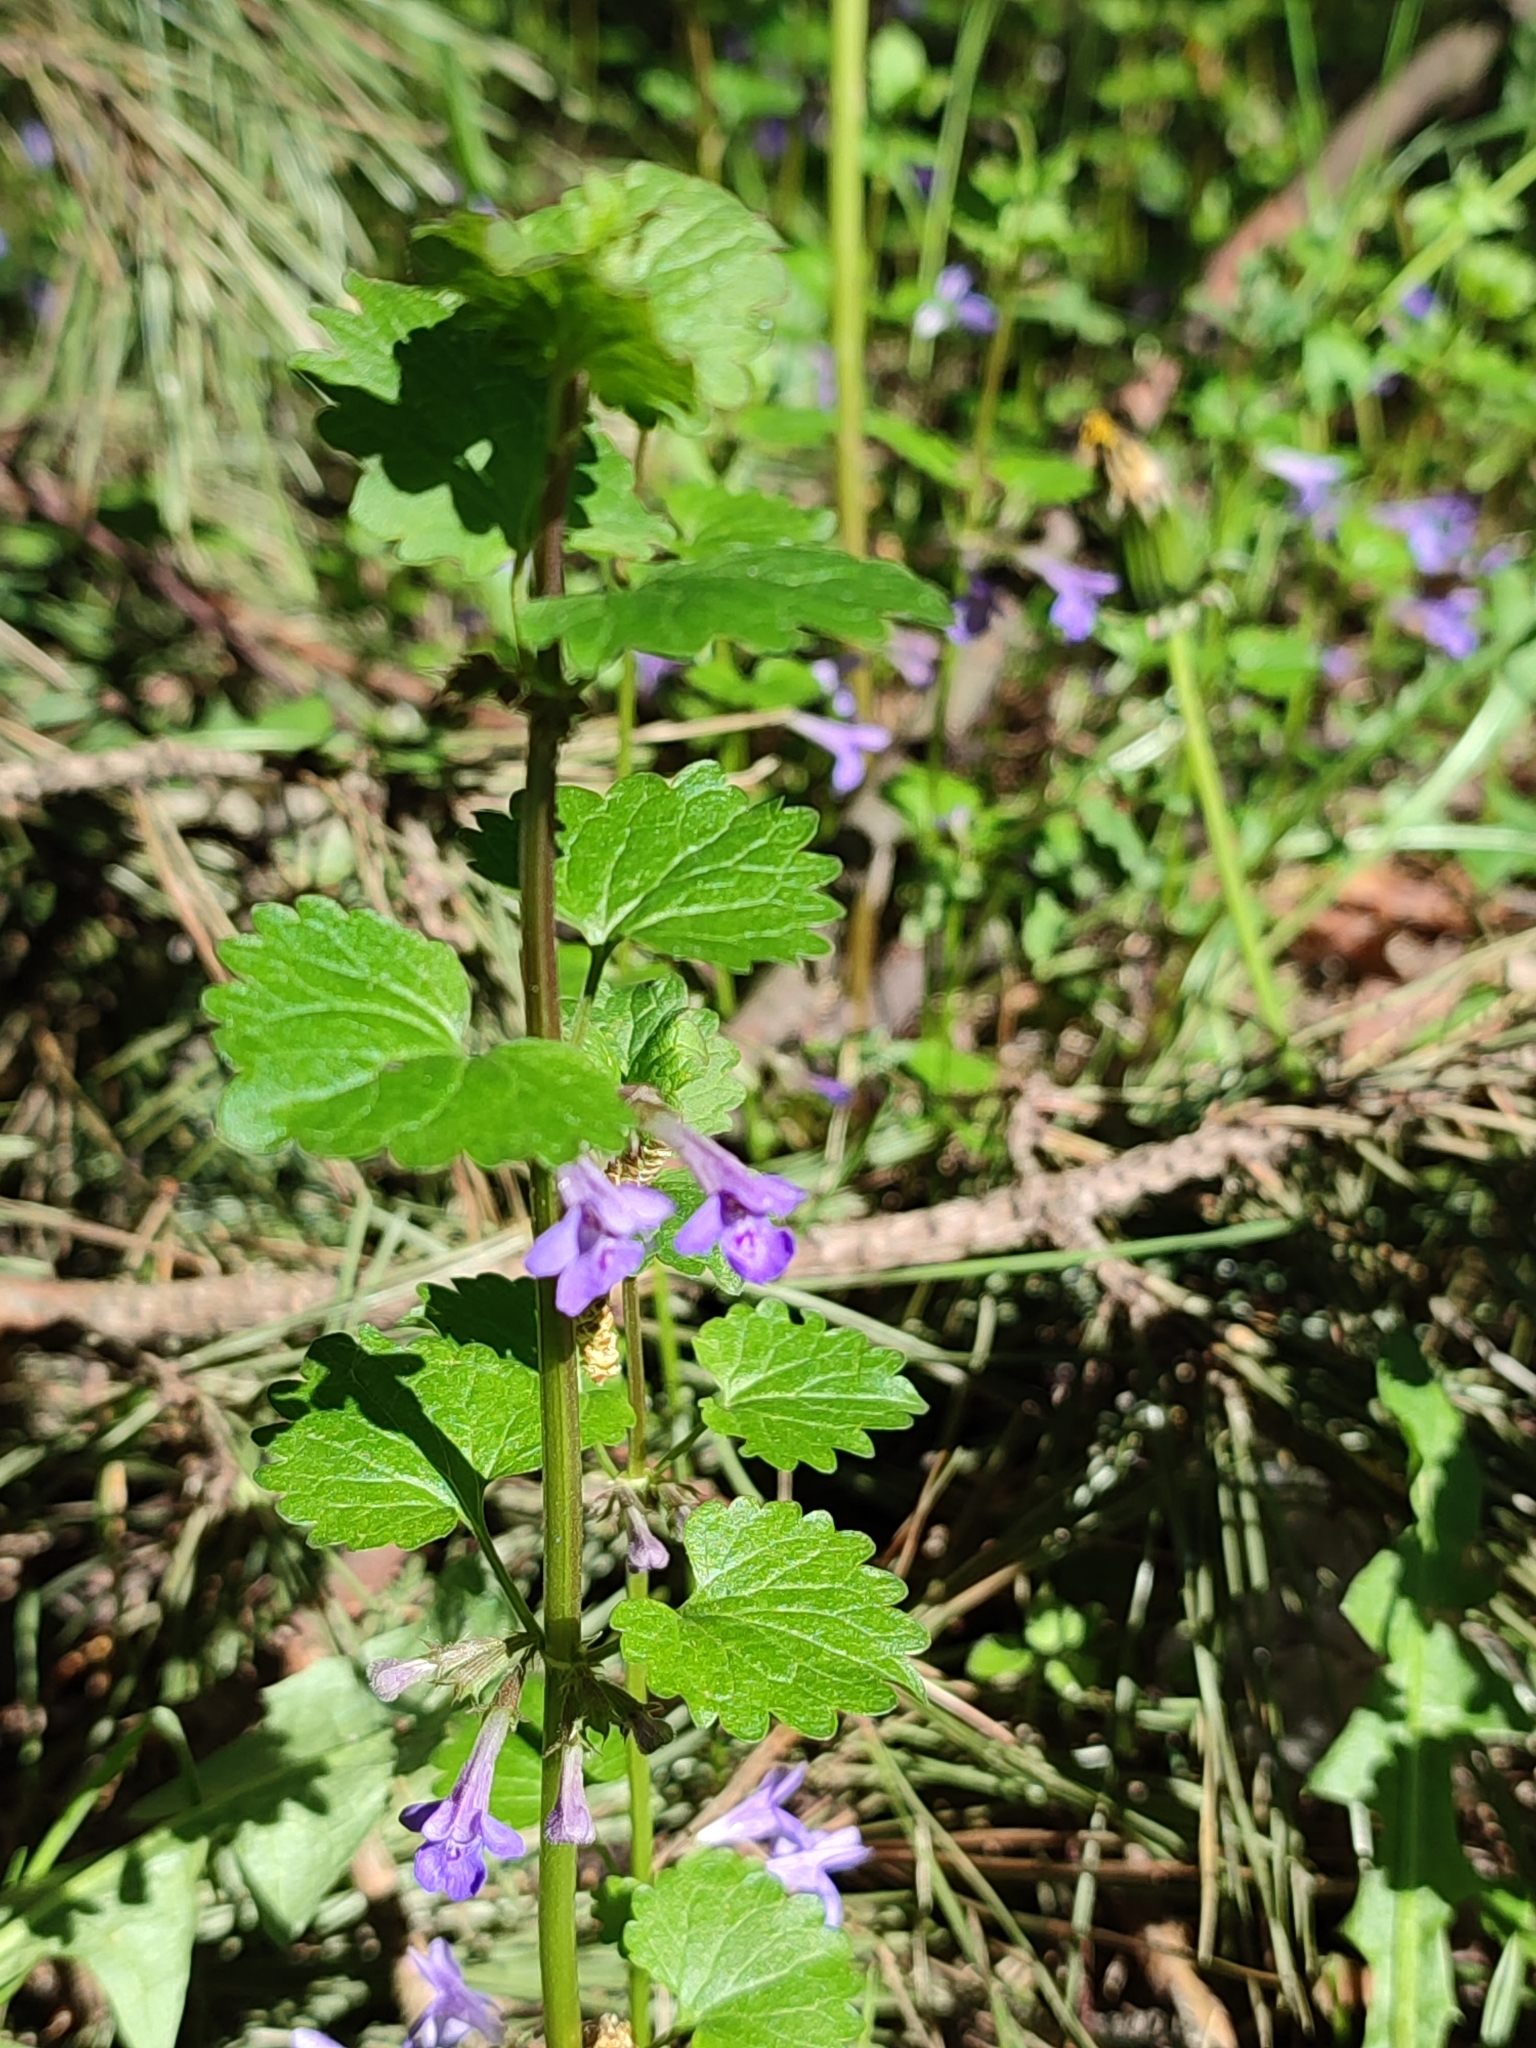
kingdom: Plantae
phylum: Tracheophyta
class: Magnoliopsida
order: Lamiales
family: Lamiaceae
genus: Glechoma
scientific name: Glechoma hederacea
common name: Ground ivy
